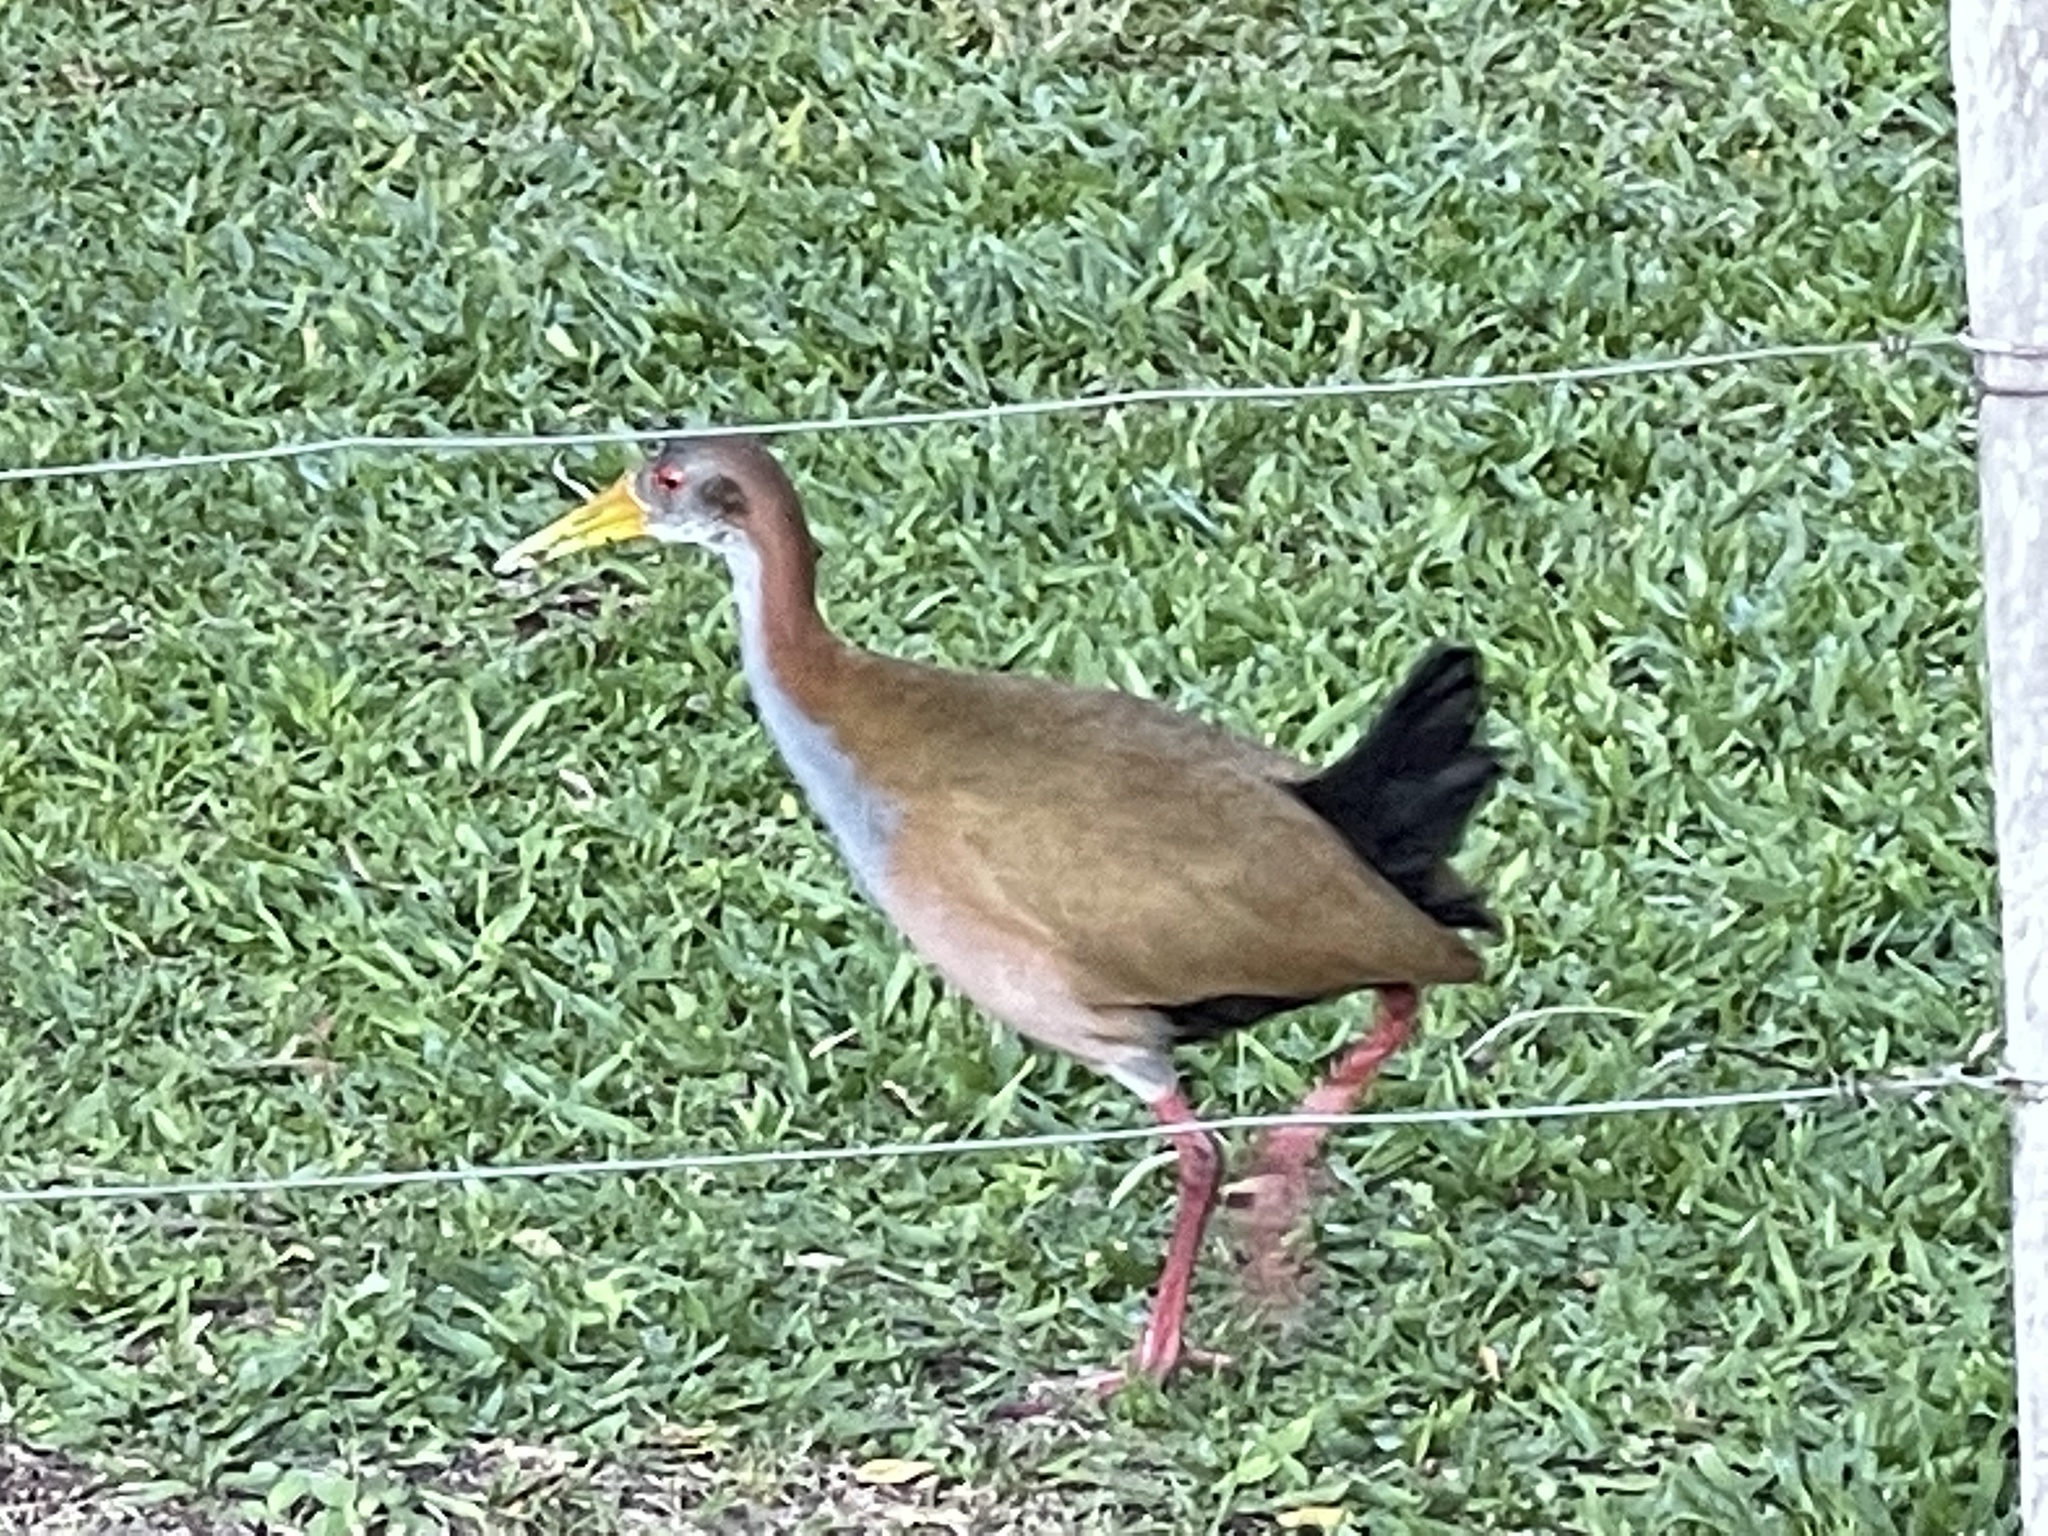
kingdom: Animalia
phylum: Chordata
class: Aves
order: Gruiformes
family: Rallidae
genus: Aramides
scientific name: Aramides ypecaha
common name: Giant wood rail
